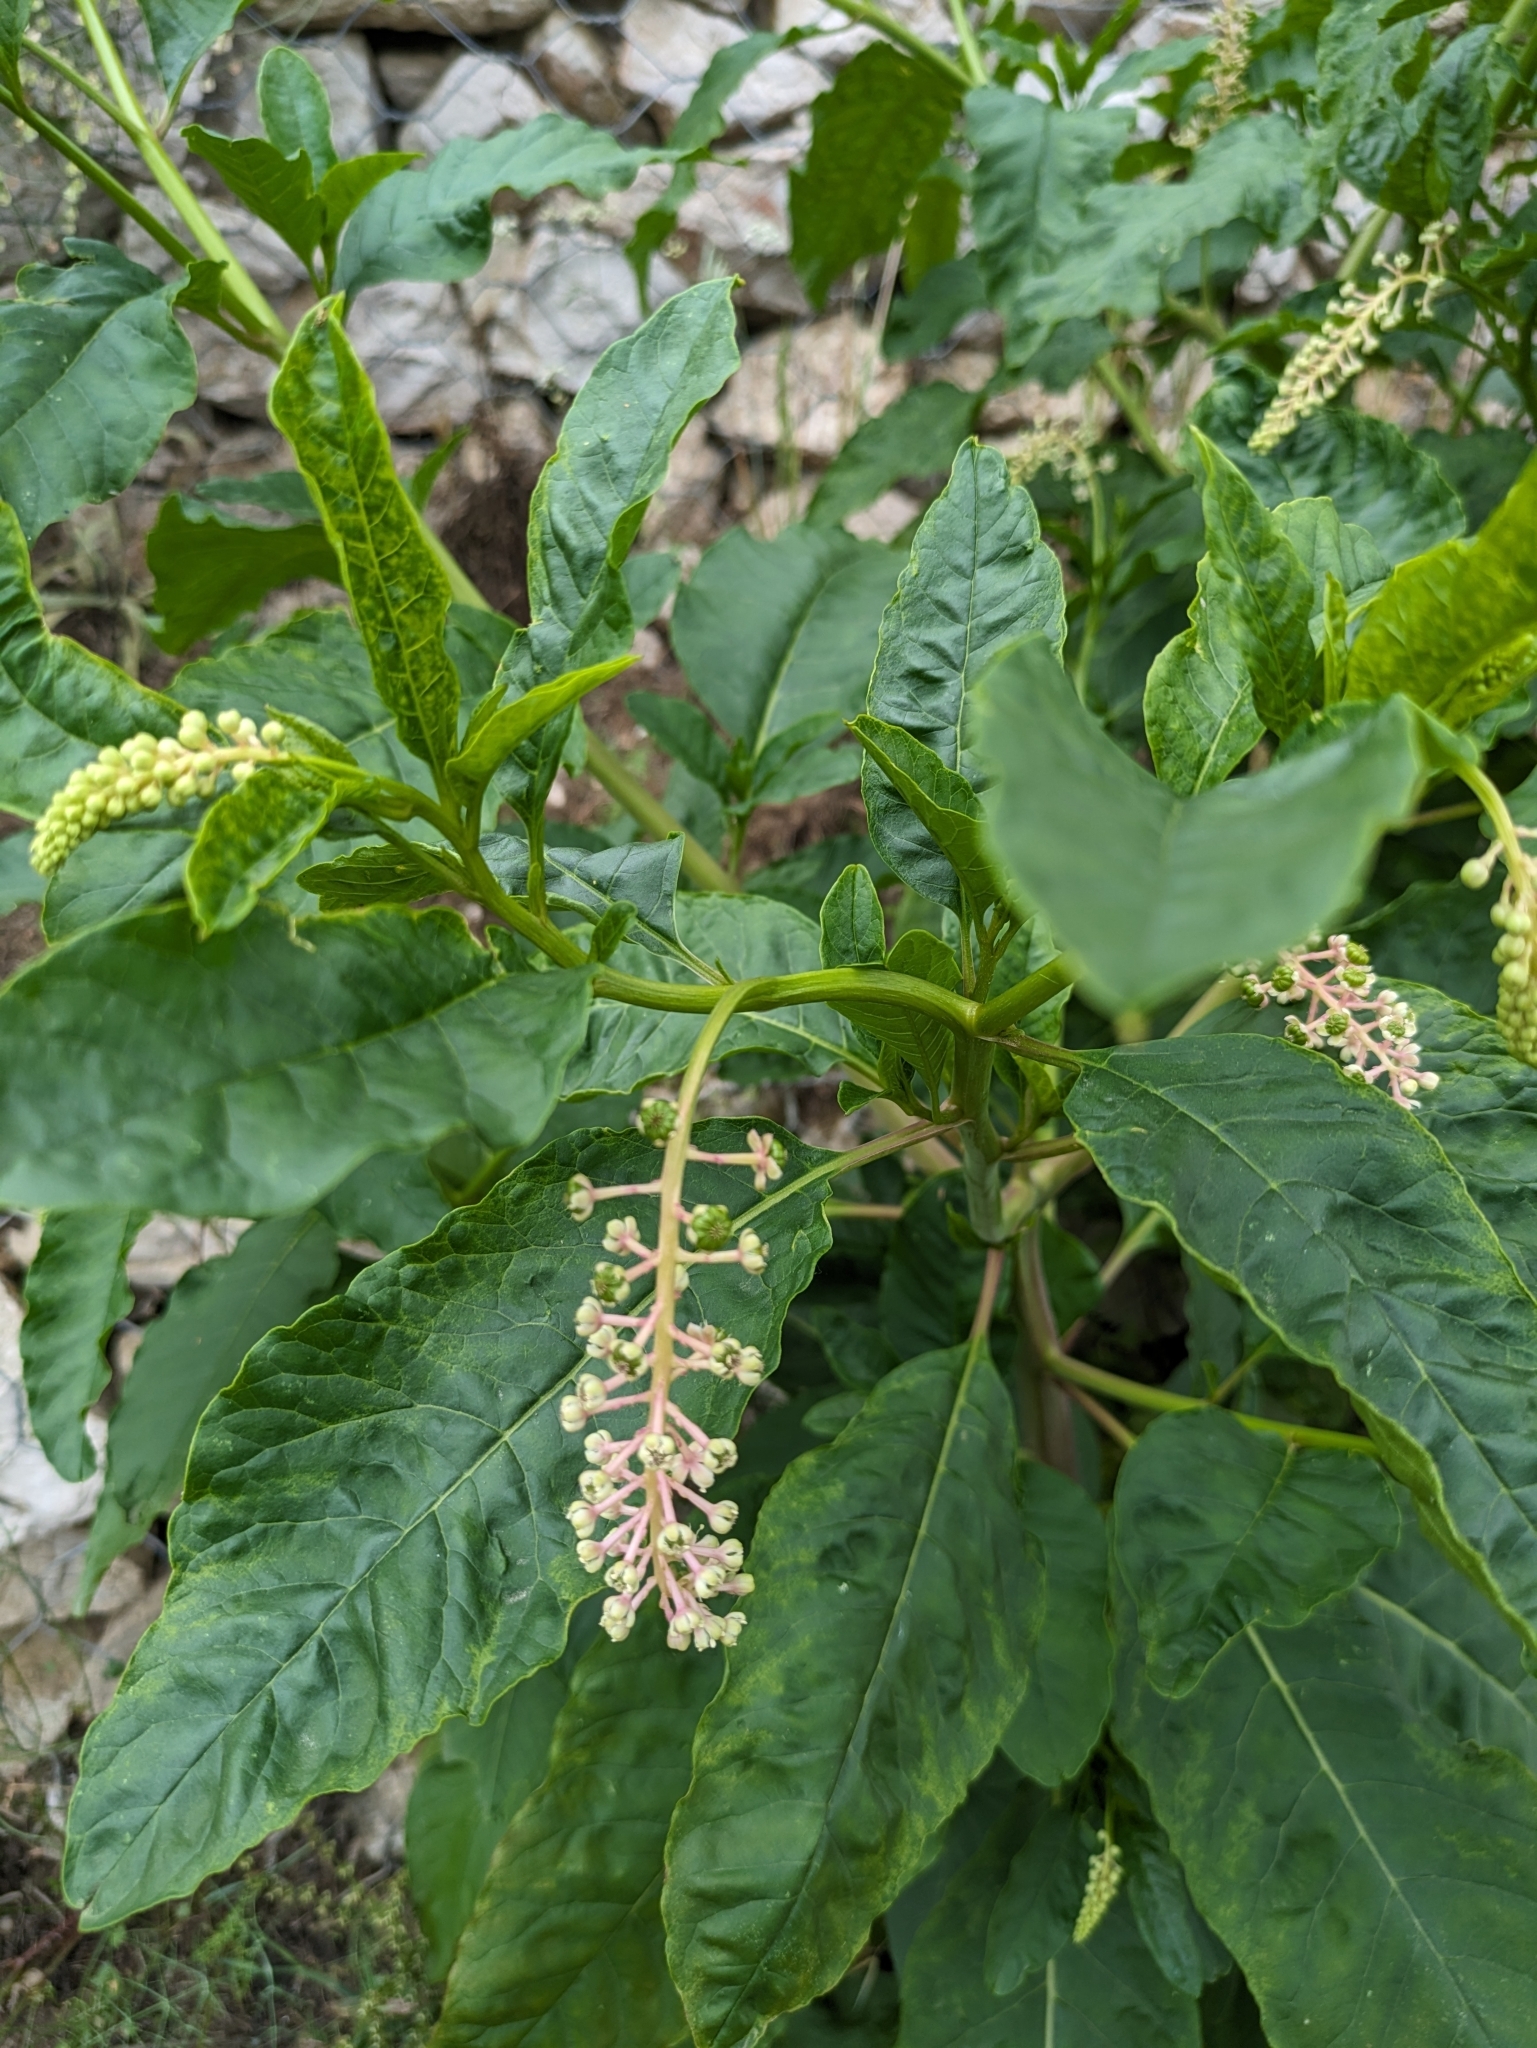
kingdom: Plantae
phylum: Tracheophyta
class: Magnoliopsida
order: Caryophyllales
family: Phytolaccaceae
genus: Phytolacca
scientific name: Phytolacca americana
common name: American pokeweed
